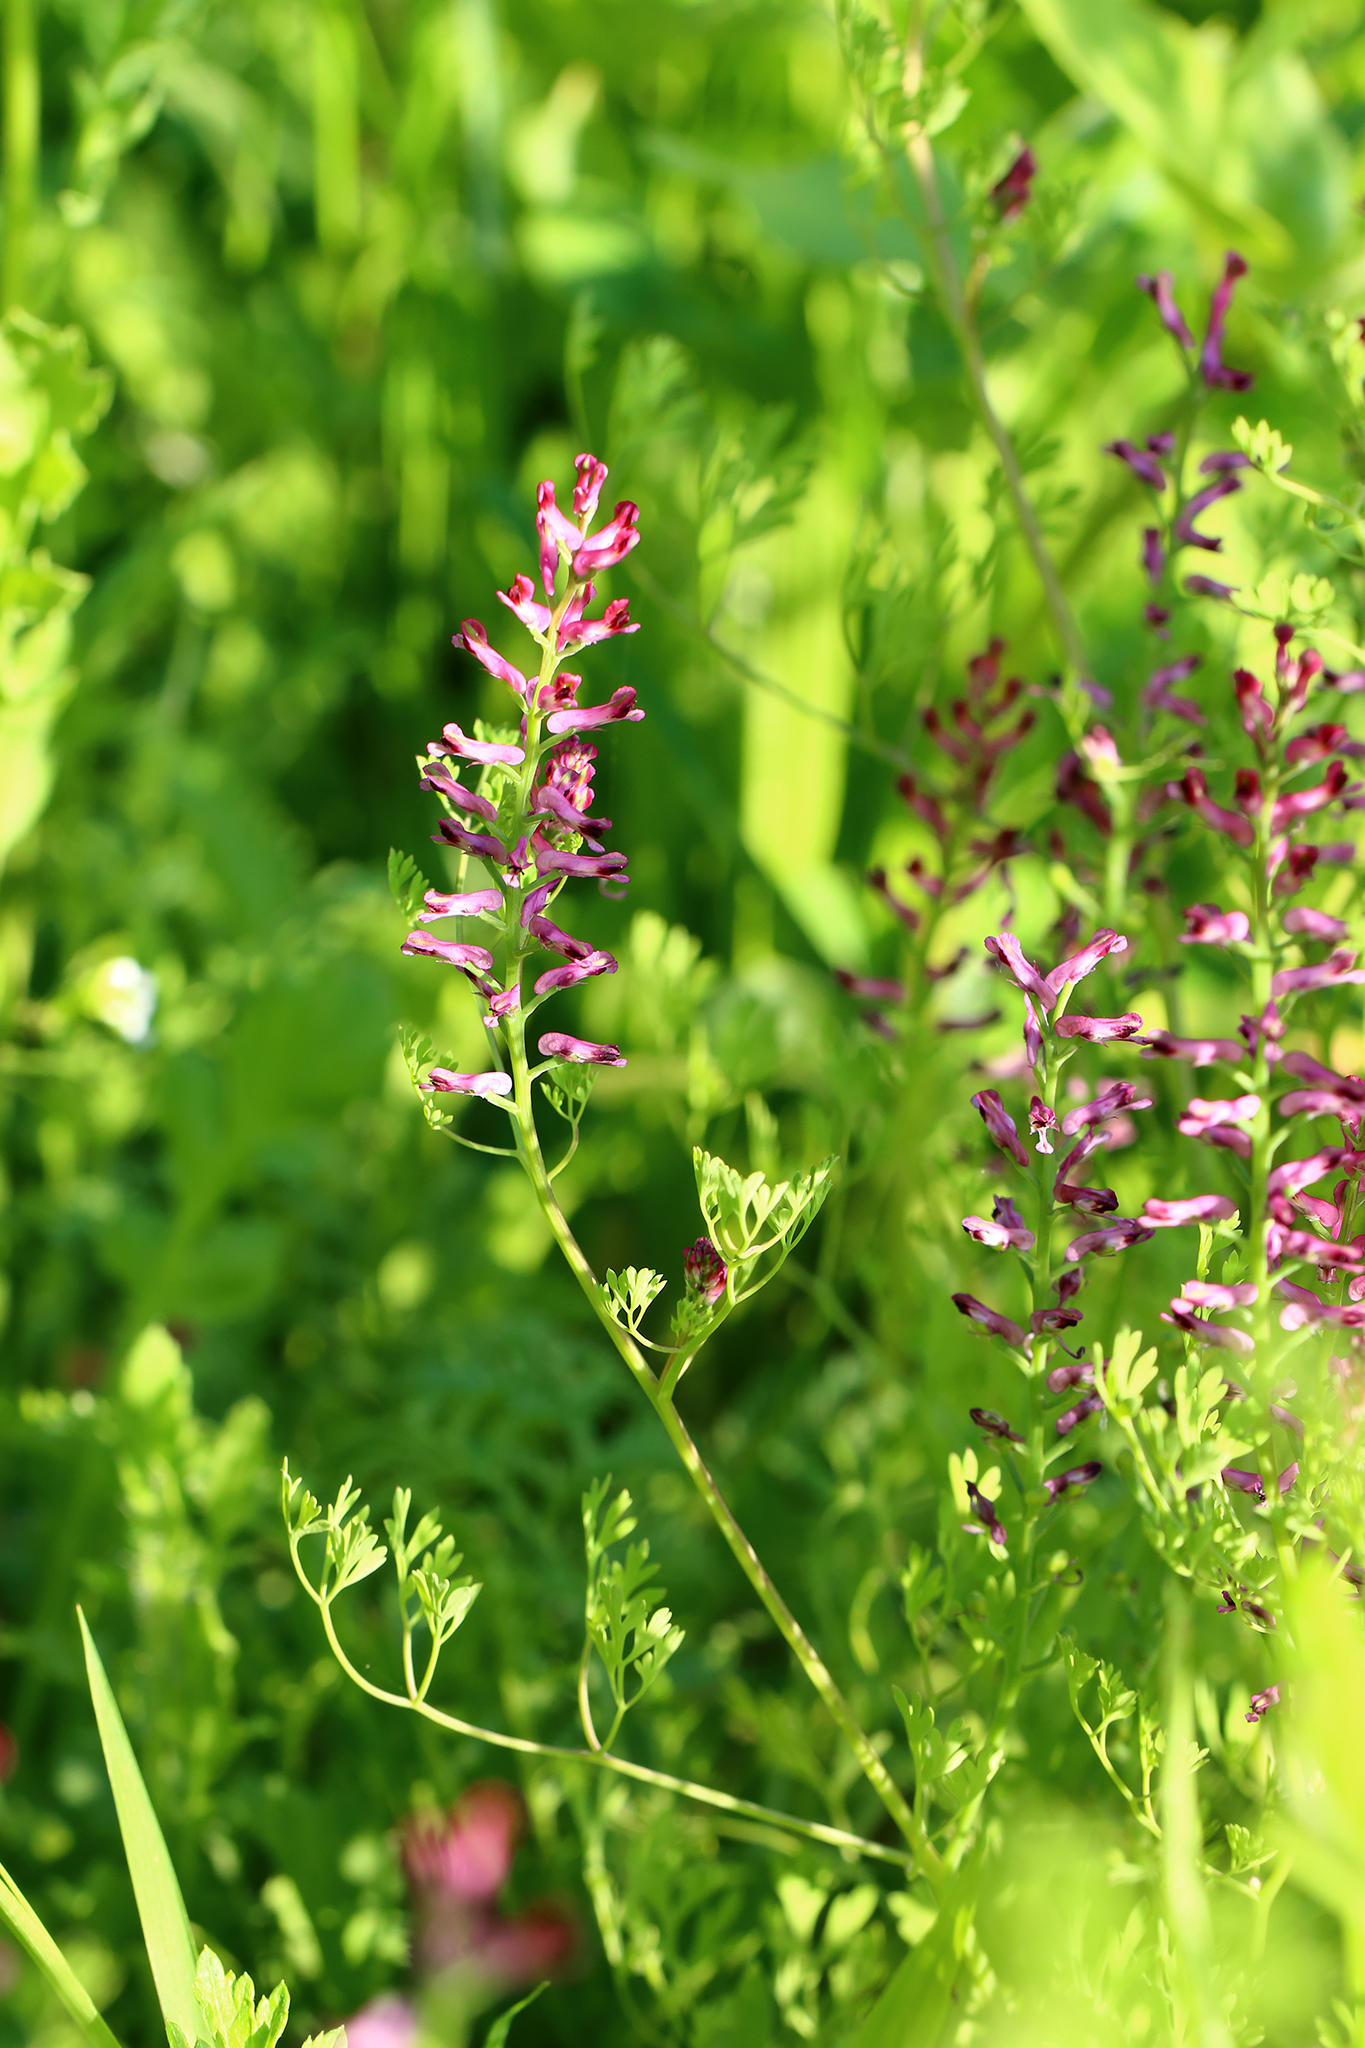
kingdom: Plantae
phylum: Tracheophyta
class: Magnoliopsida
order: Ranunculales
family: Papaveraceae
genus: Fumaria
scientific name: Fumaria officinalis
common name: Common fumitory
